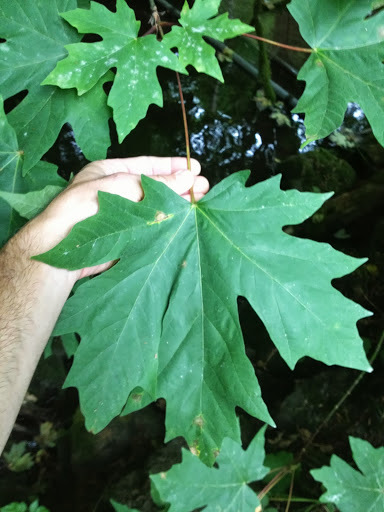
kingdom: Plantae
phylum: Tracheophyta
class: Magnoliopsida
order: Sapindales
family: Sapindaceae
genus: Acer
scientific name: Acer macrophyllum
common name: Oregon maple
